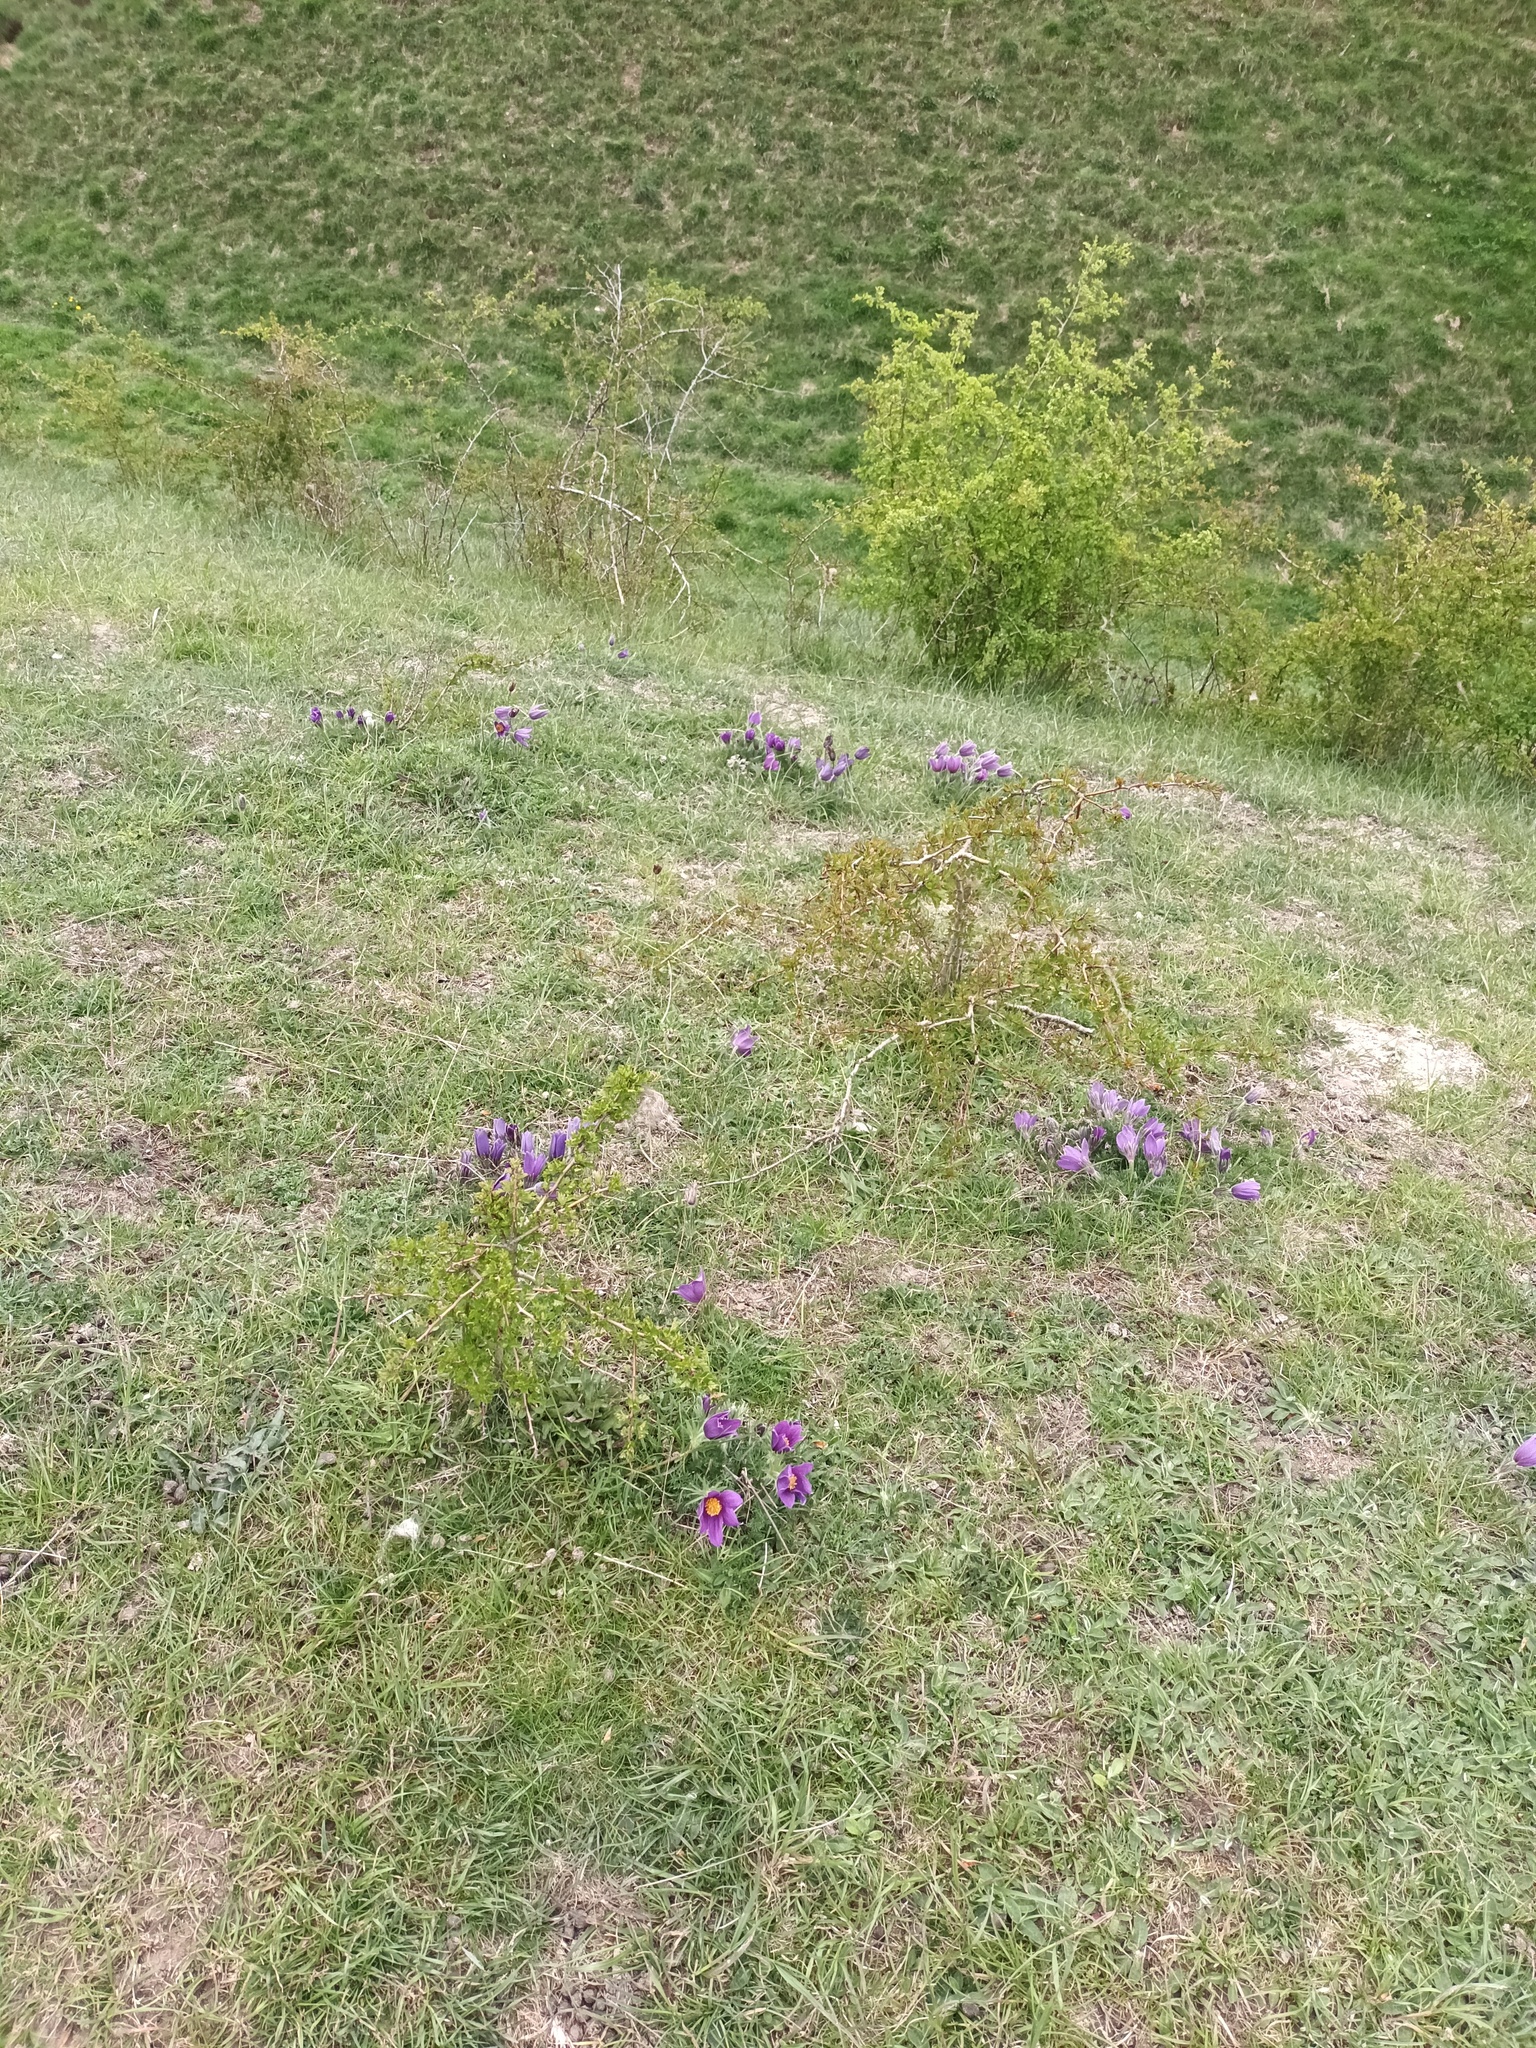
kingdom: Plantae
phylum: Tracheophyta
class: Magnoliopsida
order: Ranunculales
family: Ranunculaceae
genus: Pulsatilla
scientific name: Pulsatilla vulgaris
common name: Pasqueflower
